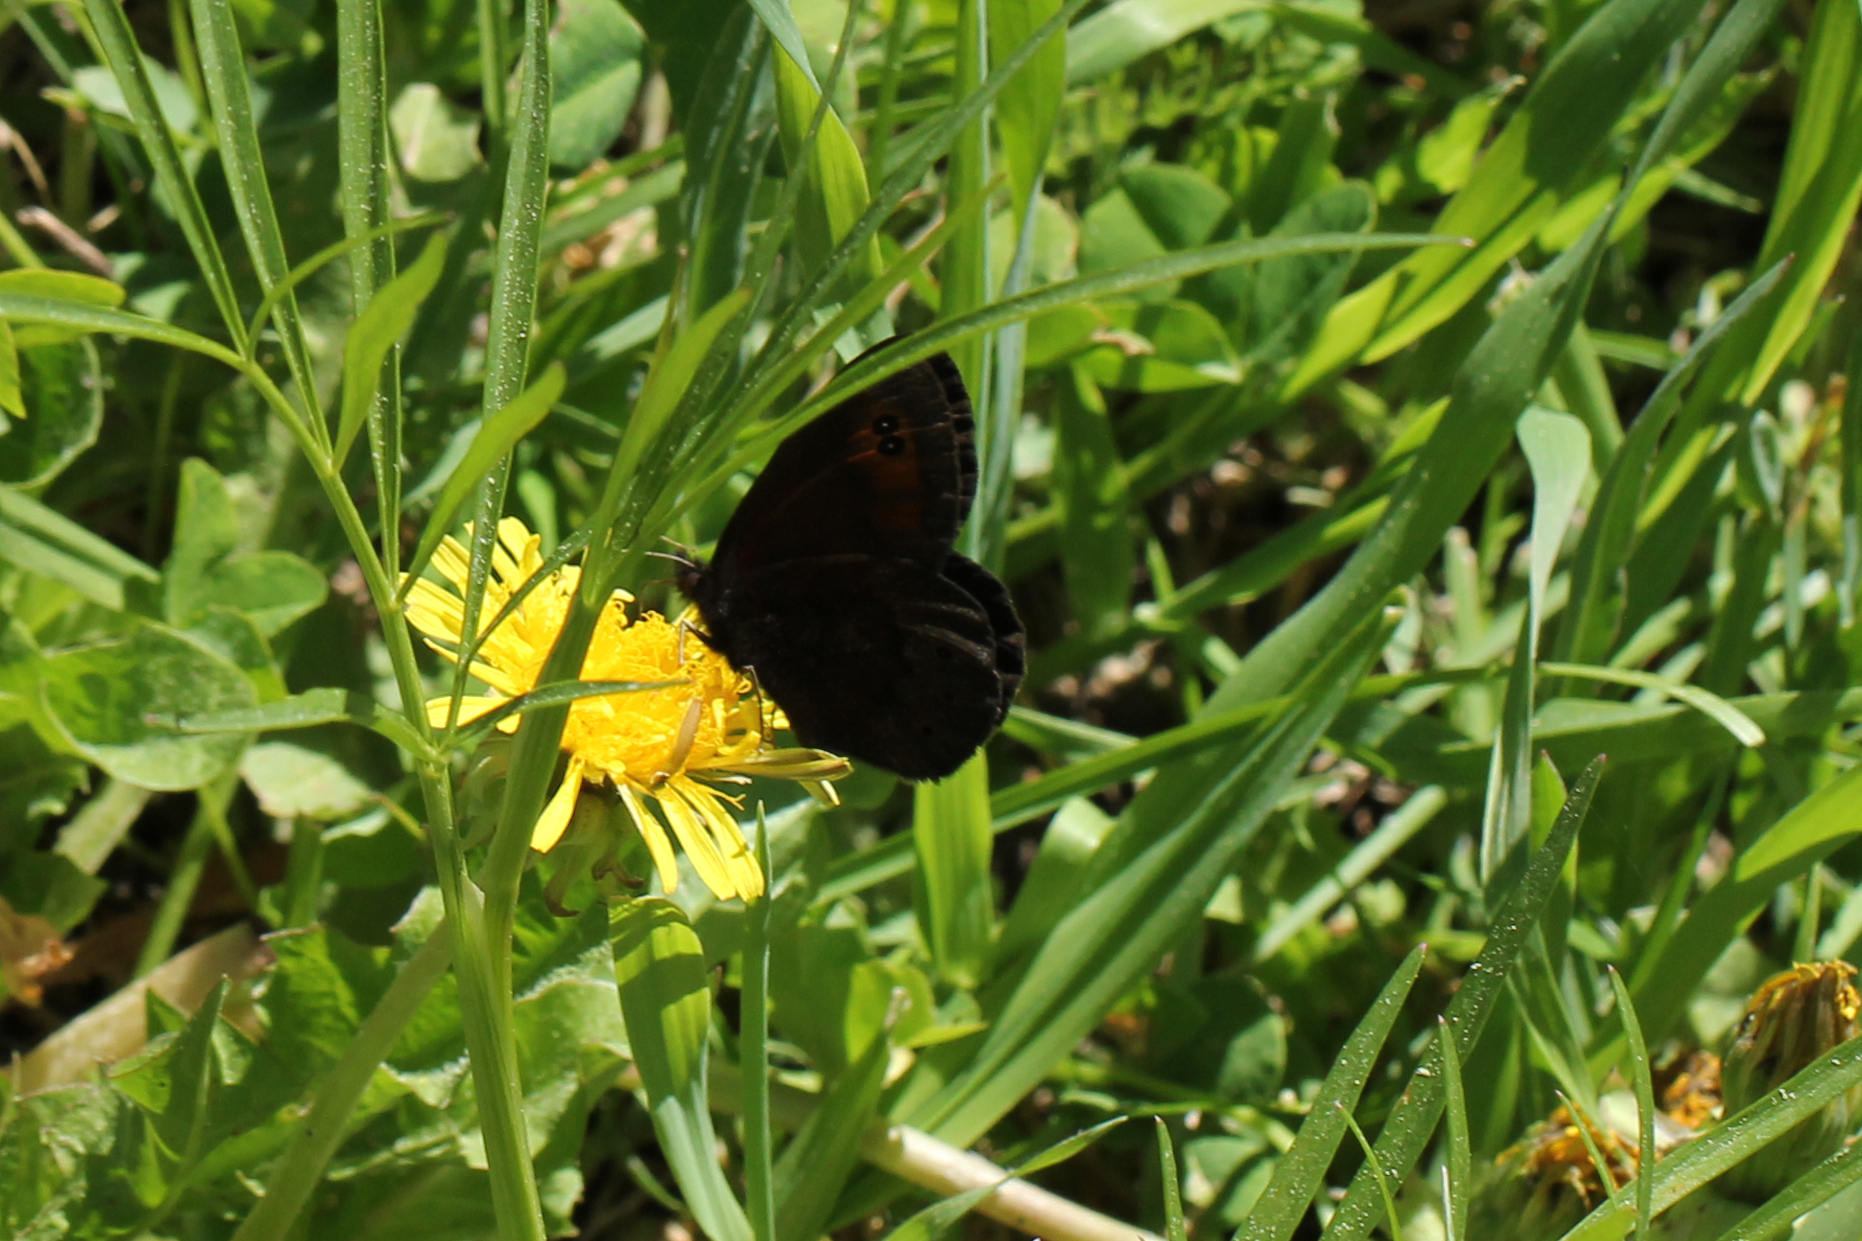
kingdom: Animalia
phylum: Arthropoda
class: Insecta
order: Lepidoptera
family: Nymphalidae
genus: Erebia
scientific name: Erebia epipsodea
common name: Common alpine
